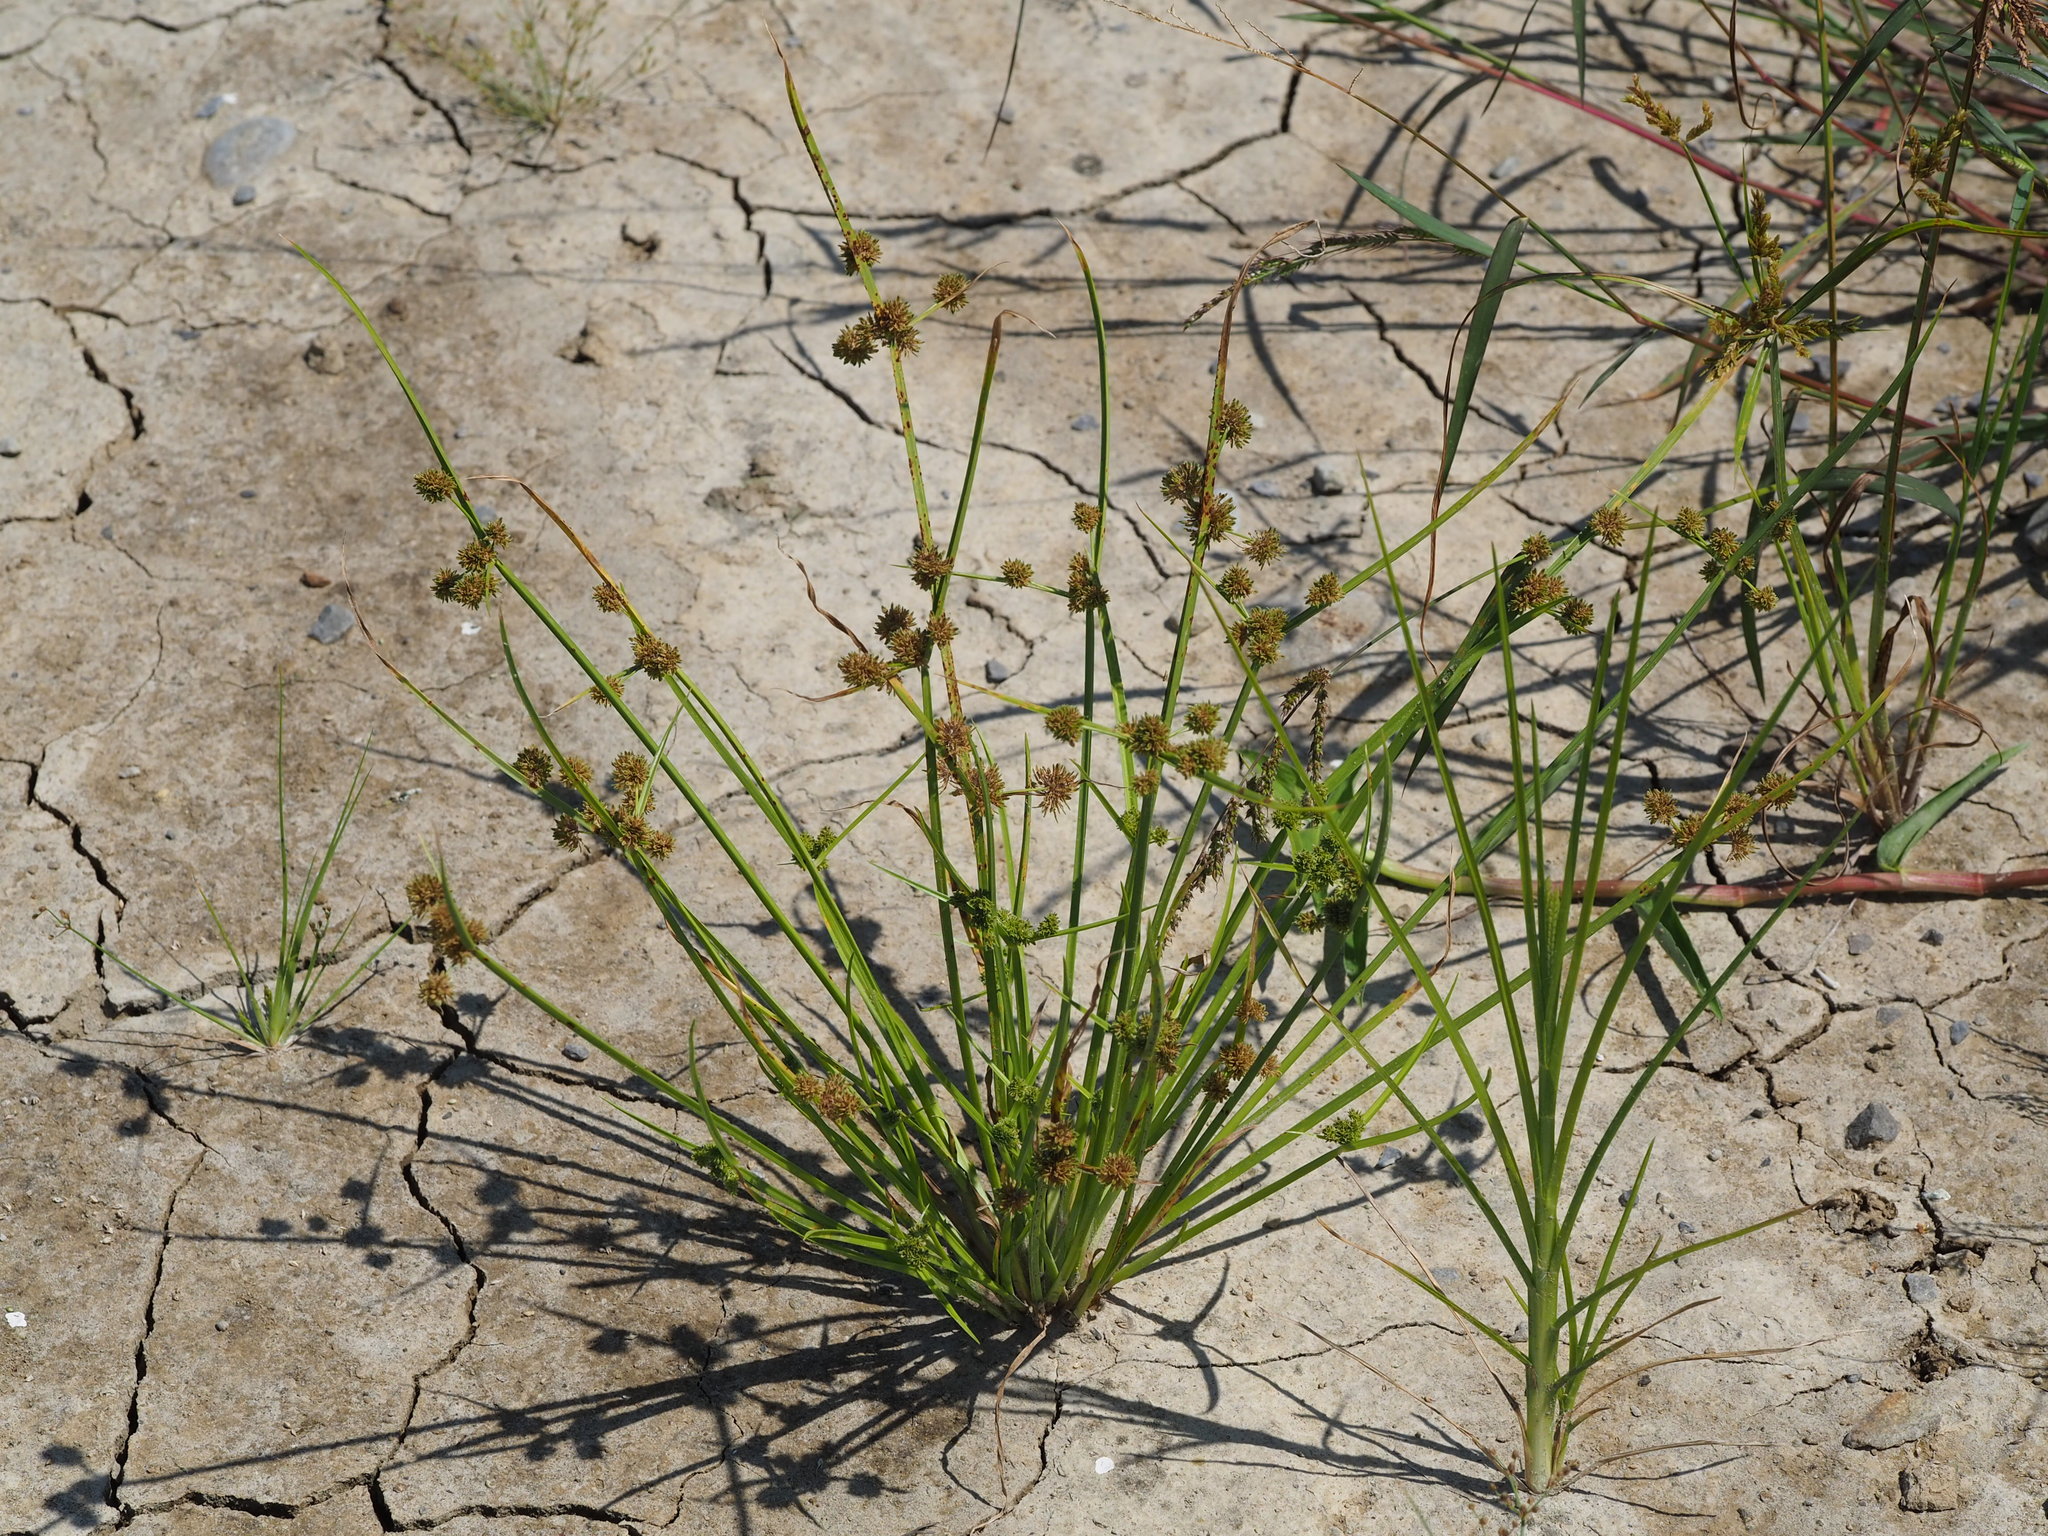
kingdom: Plantae
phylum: Tracheophyta
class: Liliopsida
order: Poales
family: Cyperaceae
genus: Cyperus
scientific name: Cyperus difformis
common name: Variable flatsedge
